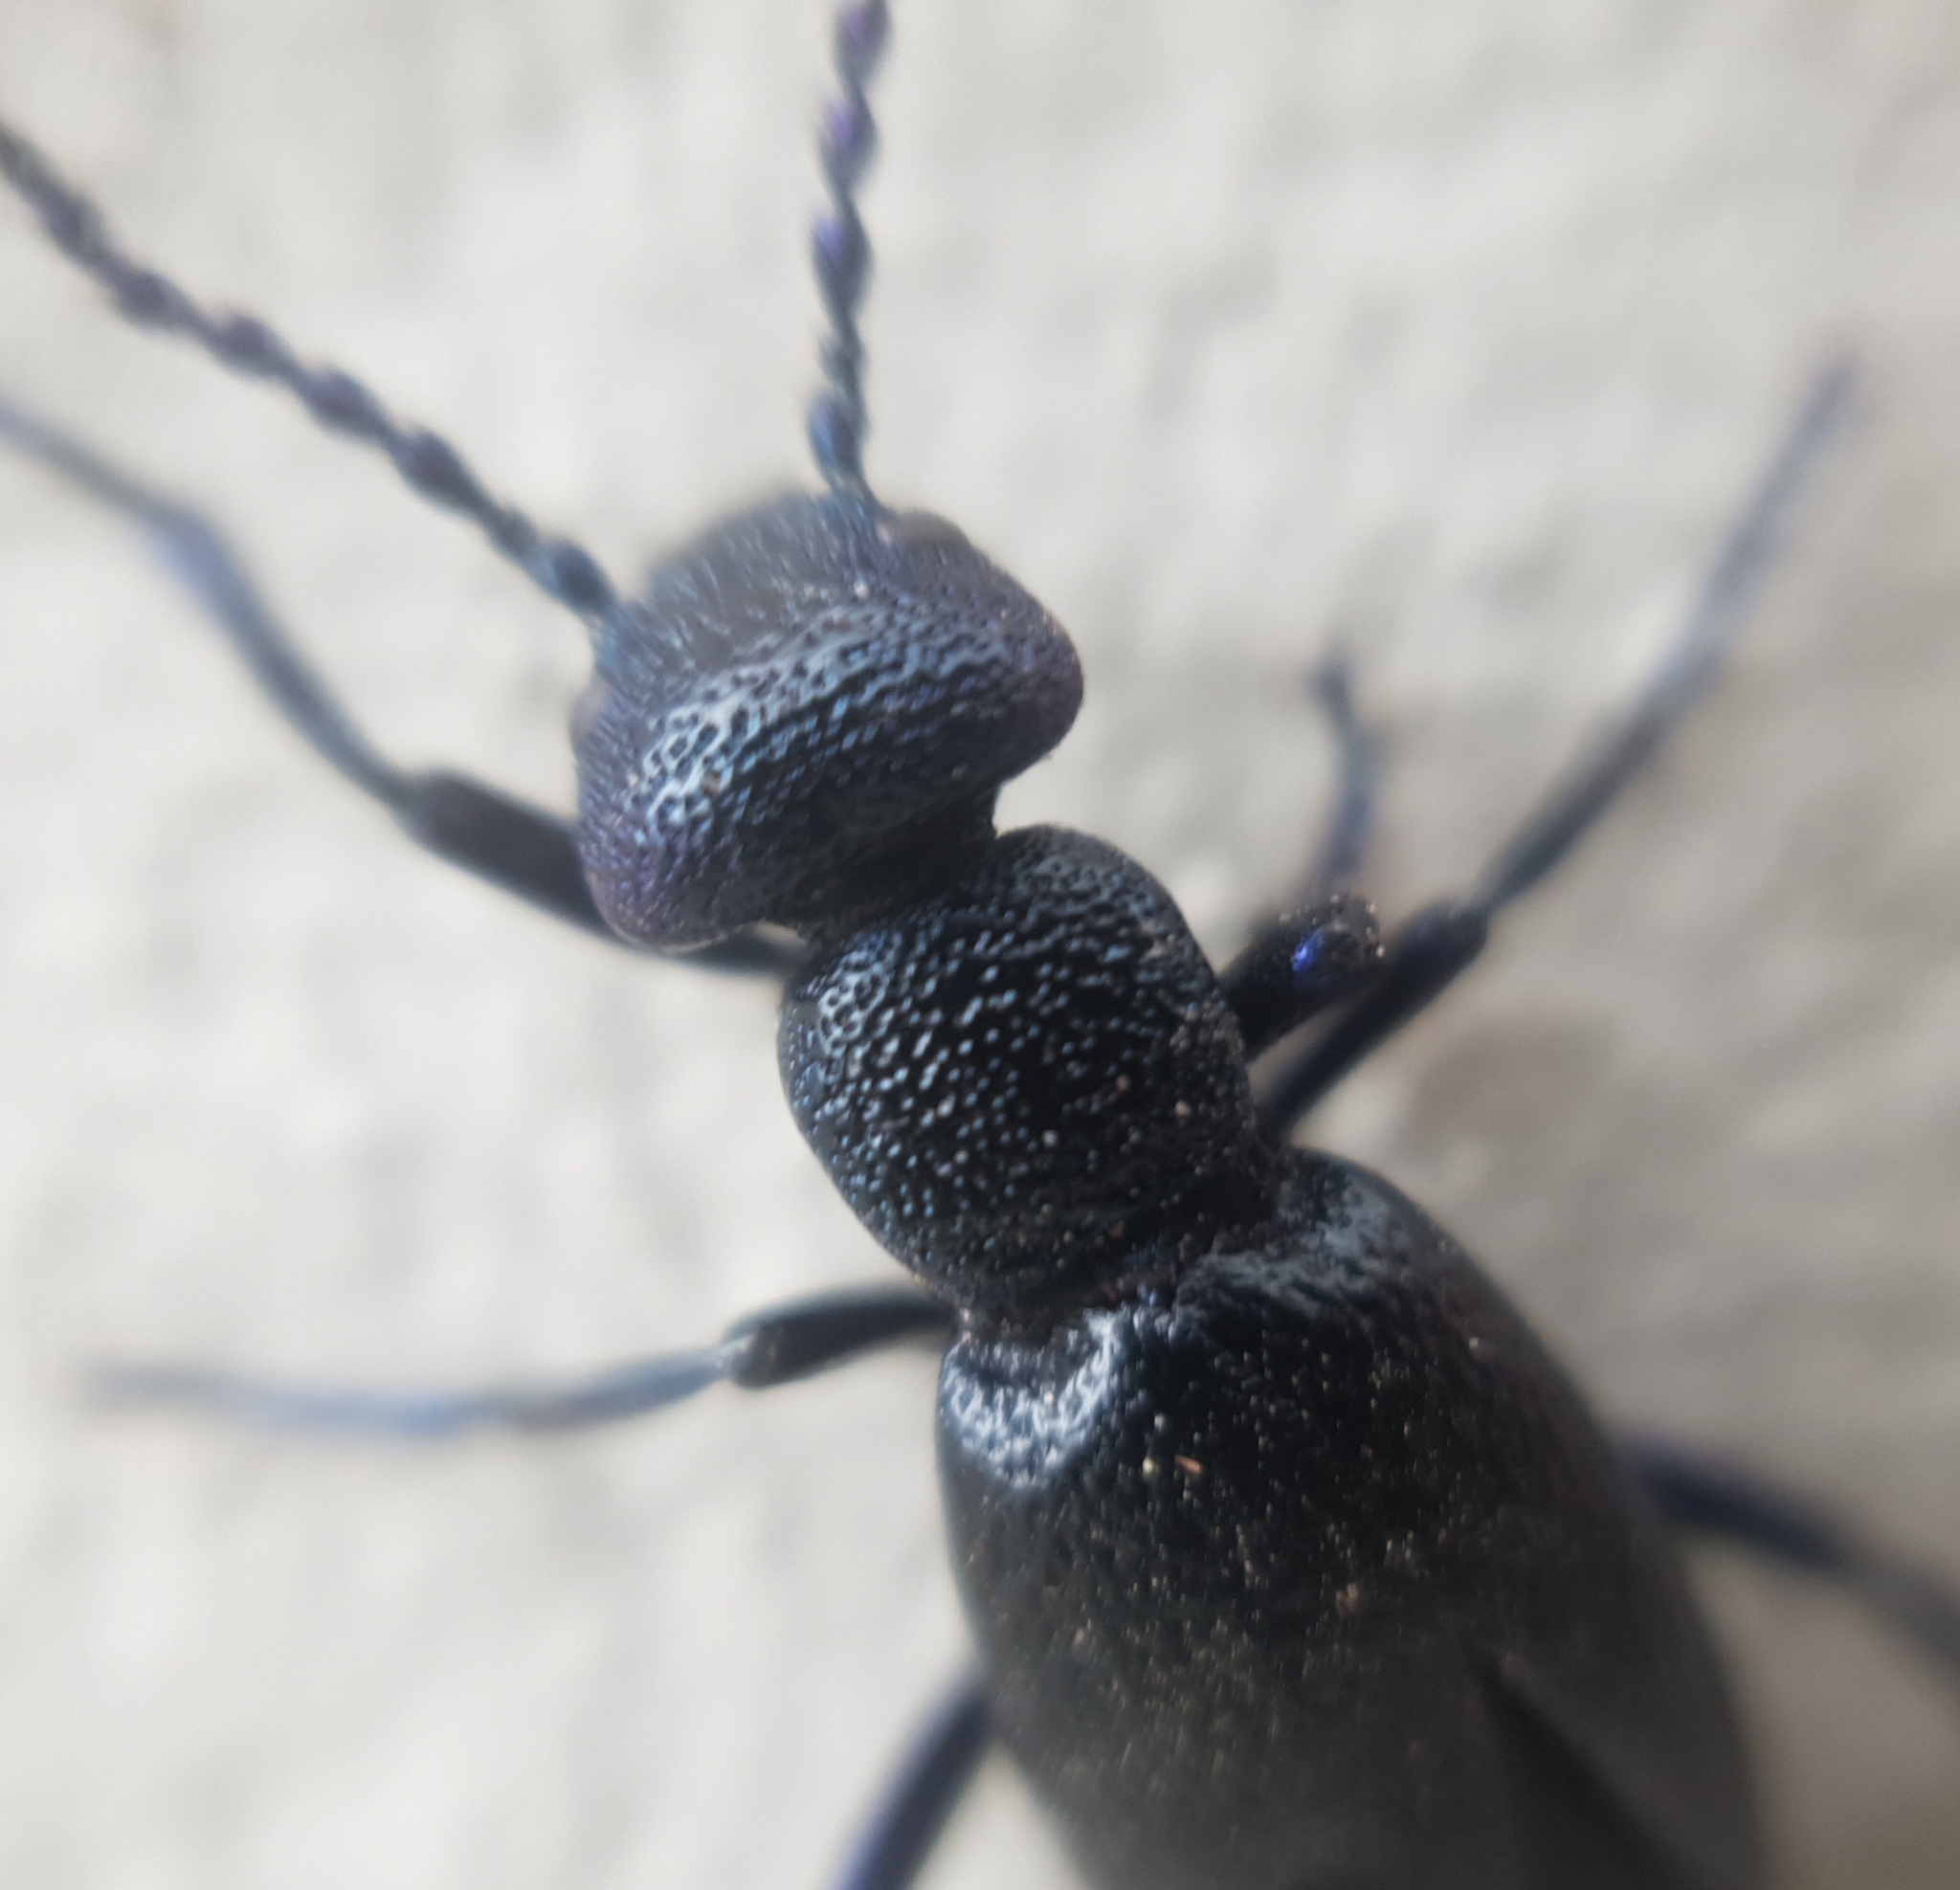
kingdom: Animalia
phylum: Arthropoda
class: Insecta
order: Coleoptera
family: Meloidae
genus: Meloe
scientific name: Meloe proscarabaeus
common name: Black oil-beetle
